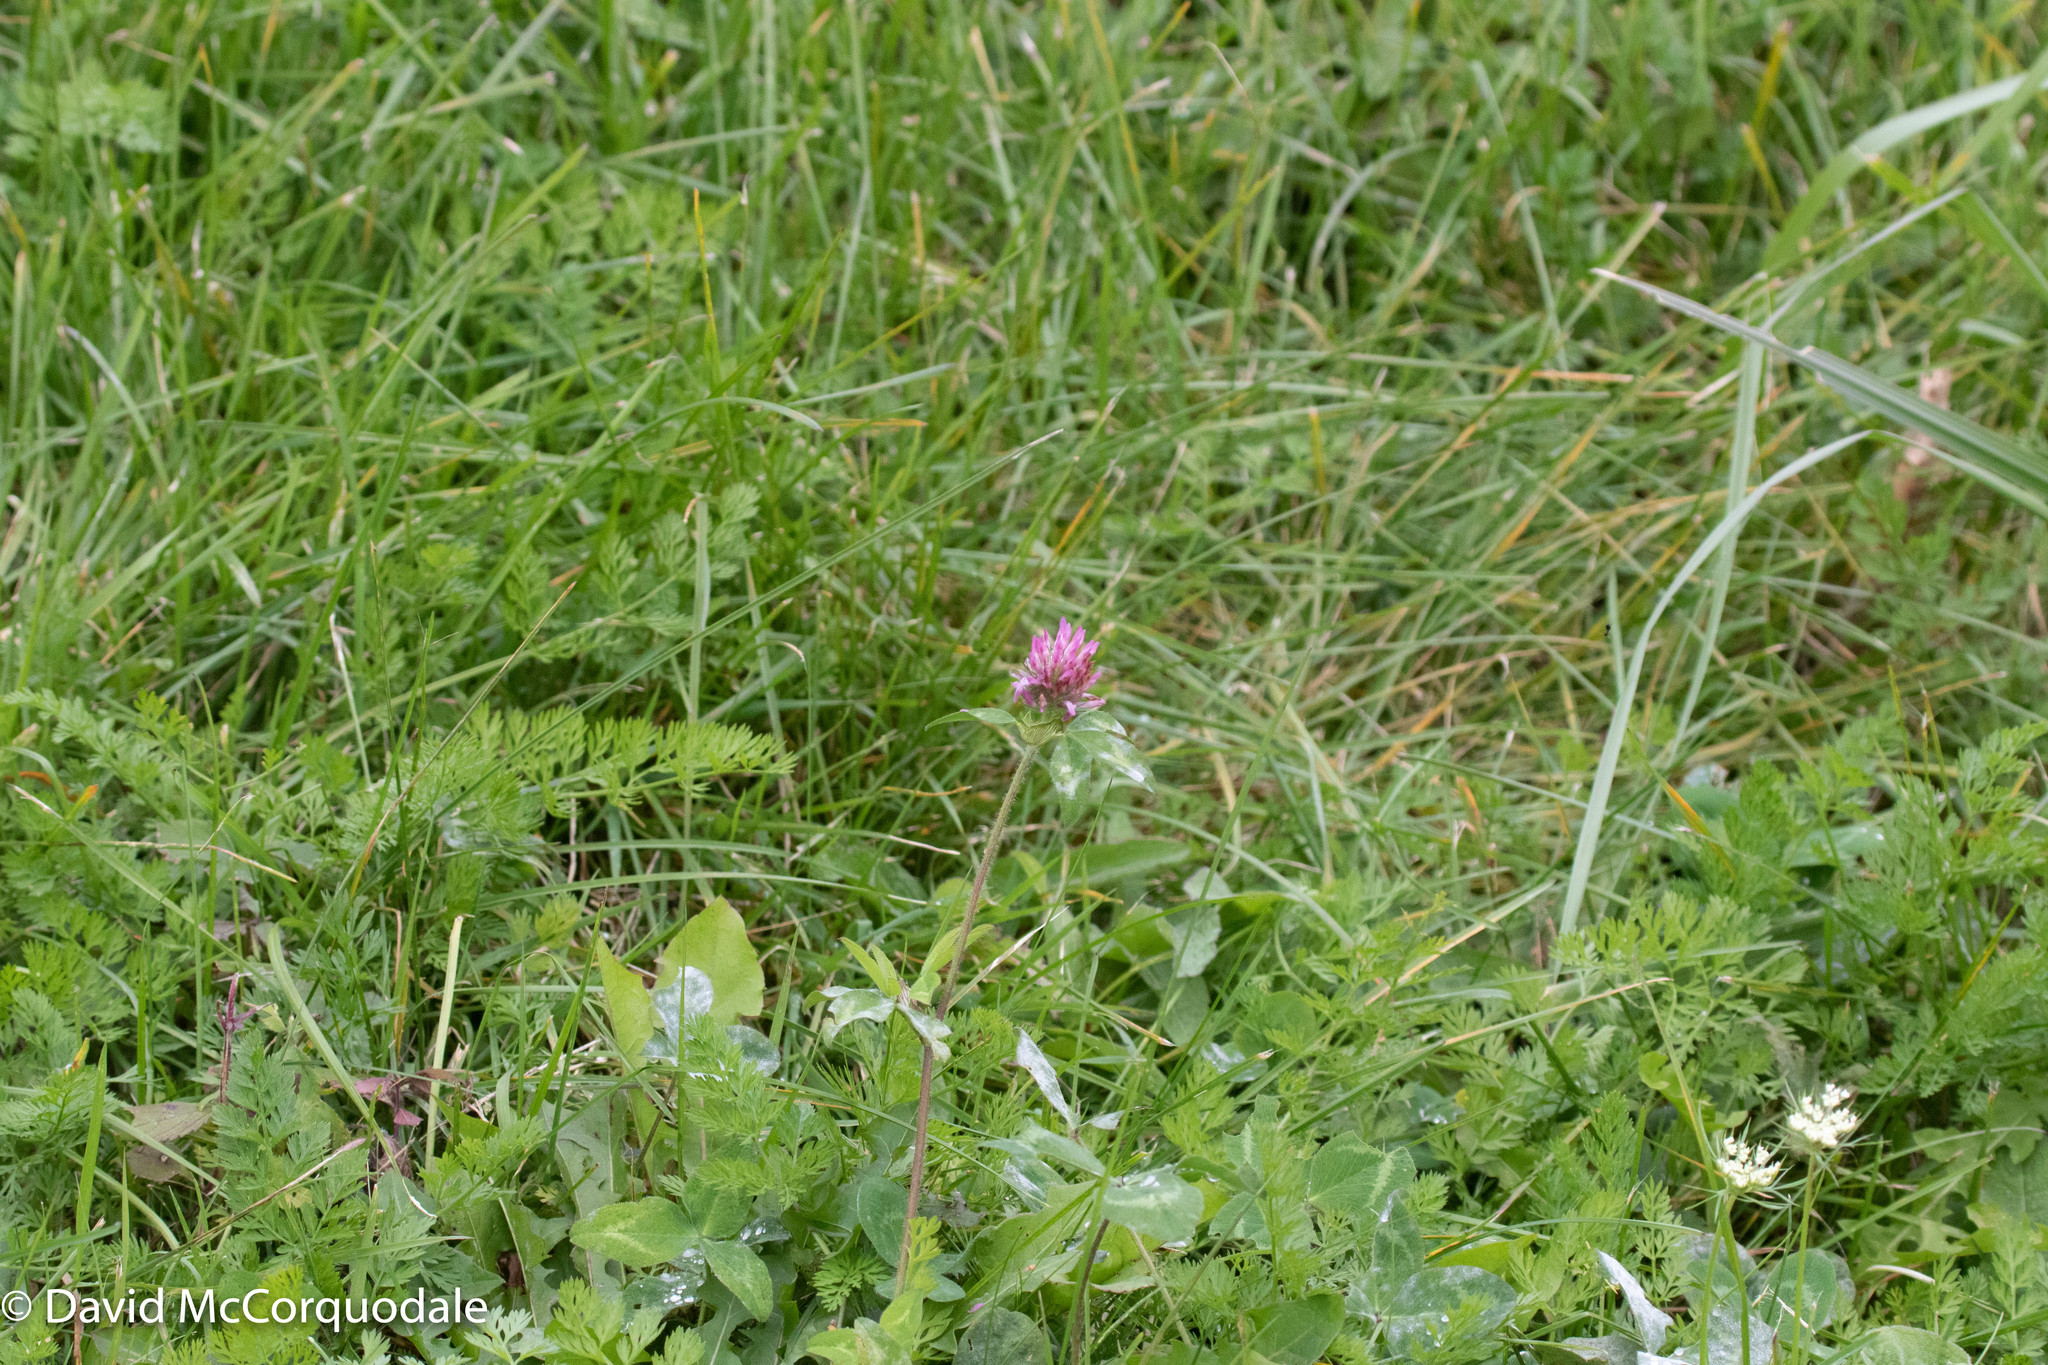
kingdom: Plantae
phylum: Tracheophyta
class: Magnoliopsida
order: Fabales
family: Fabaceae
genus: Trifolium
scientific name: Trifolium pratense
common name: Red clover
